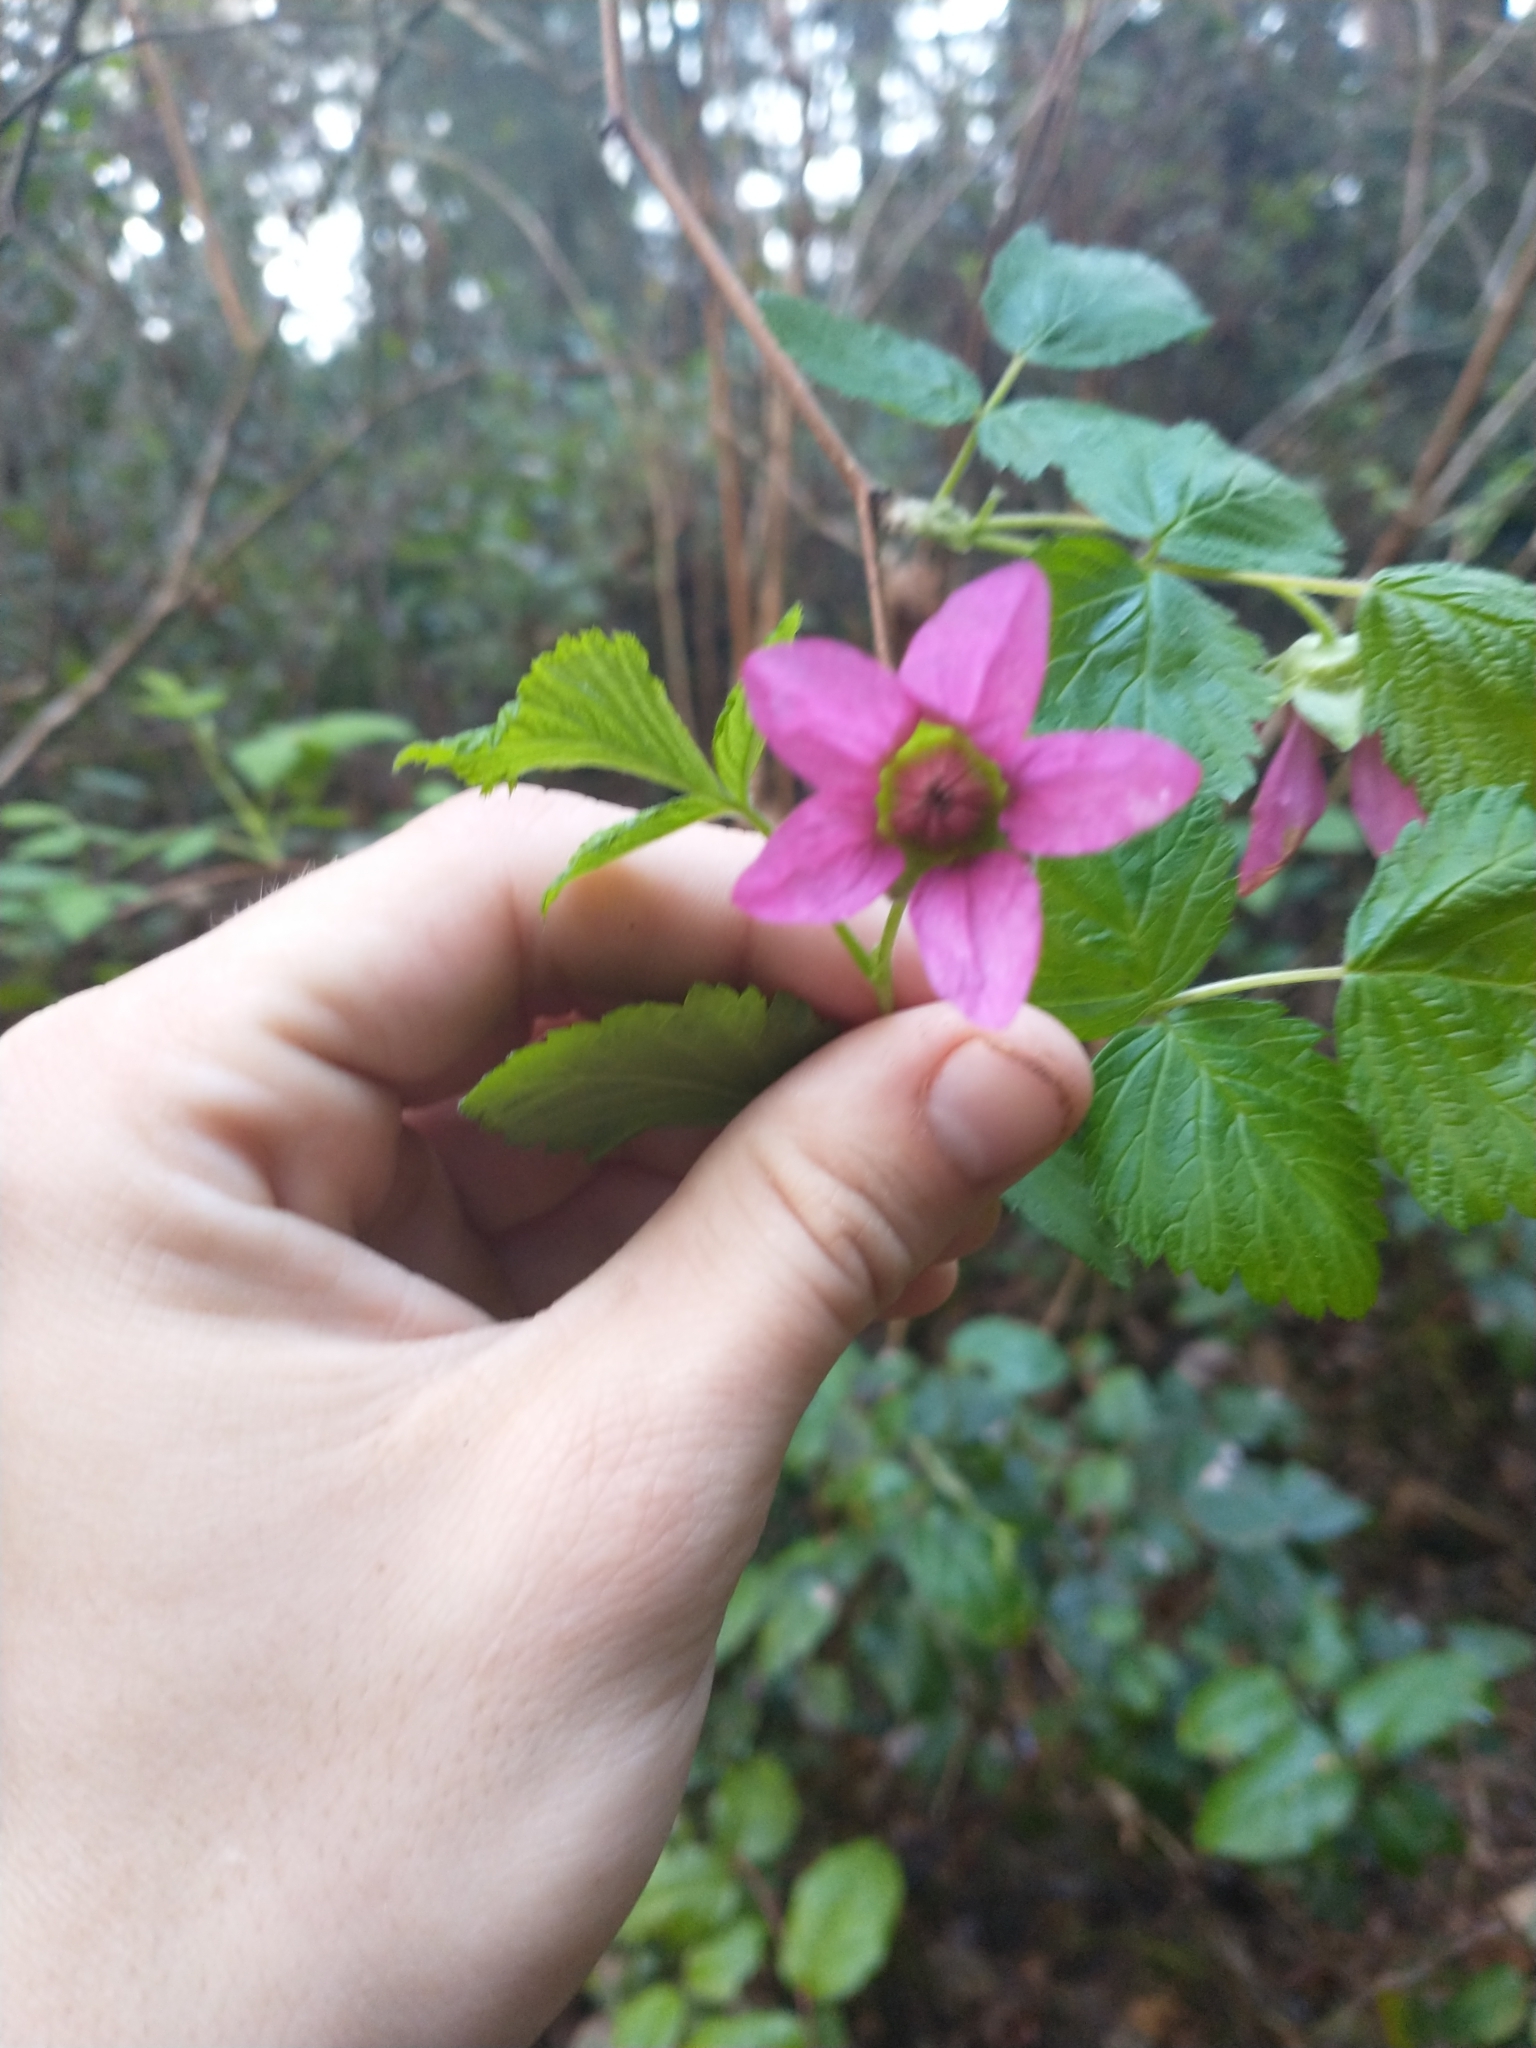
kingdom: Plantae
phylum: Tracheophyta
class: Magnoliopsida
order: Rosales
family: Rosaceae
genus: Rubus
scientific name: Rubus spectabilis
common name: Salmonberry
